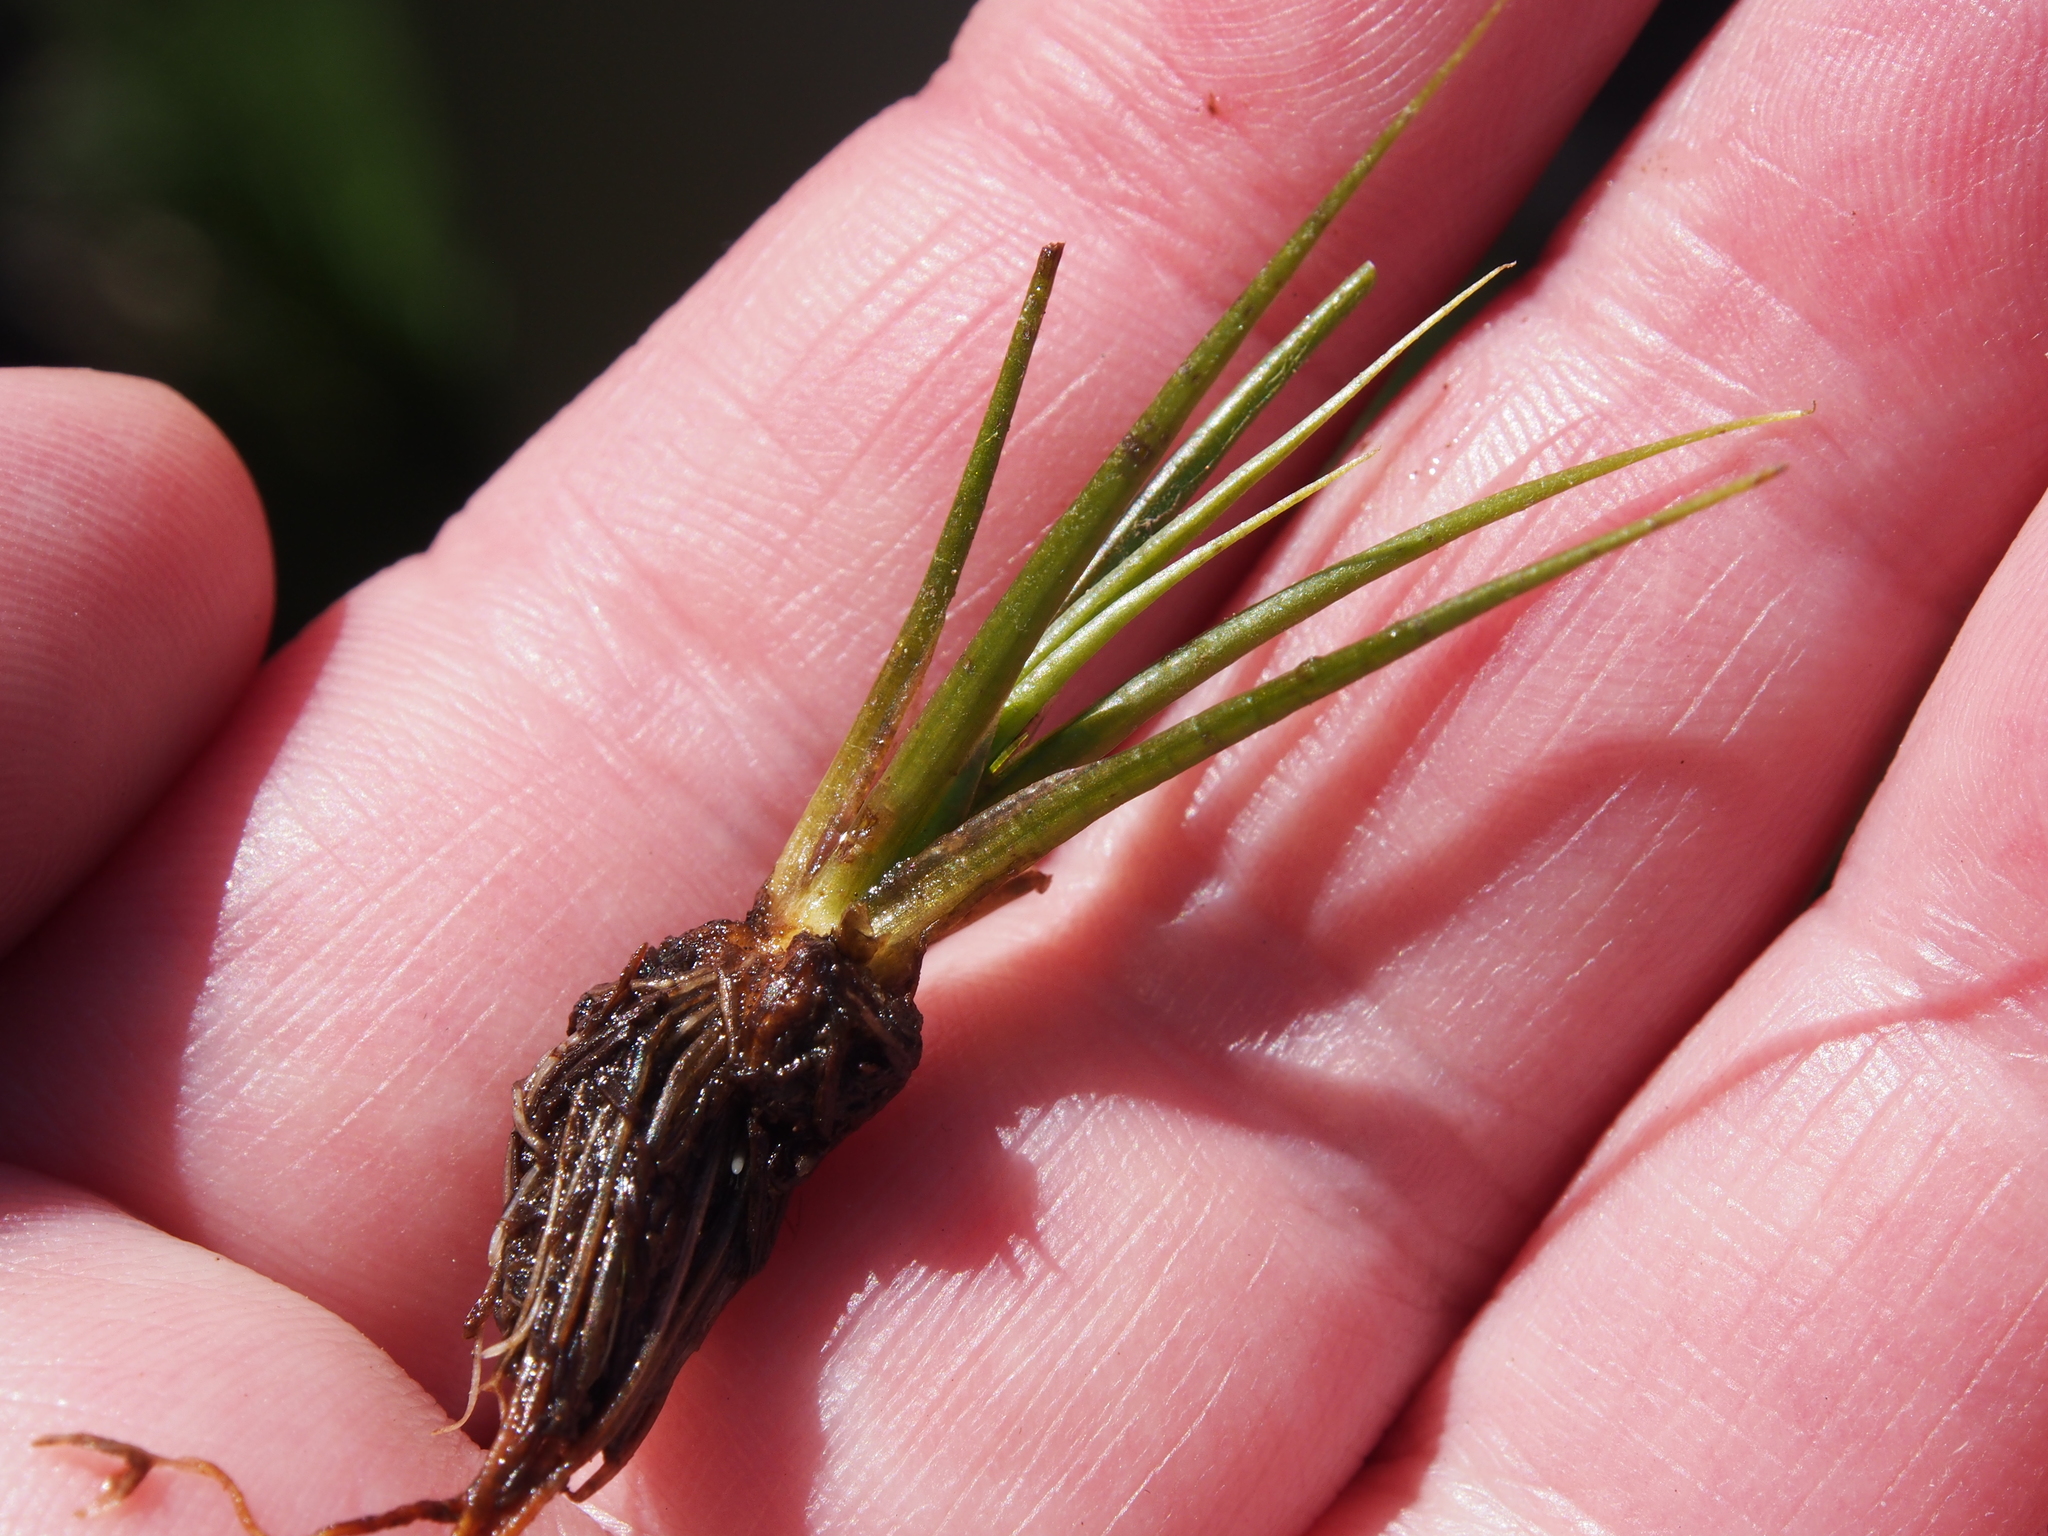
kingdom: Plantae
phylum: Tracheophyta
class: Lycopodiopsida
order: Isoetales
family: Isoetaceae
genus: Isoetes
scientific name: Isoetes bolanderi
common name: Bolander's quillwort
